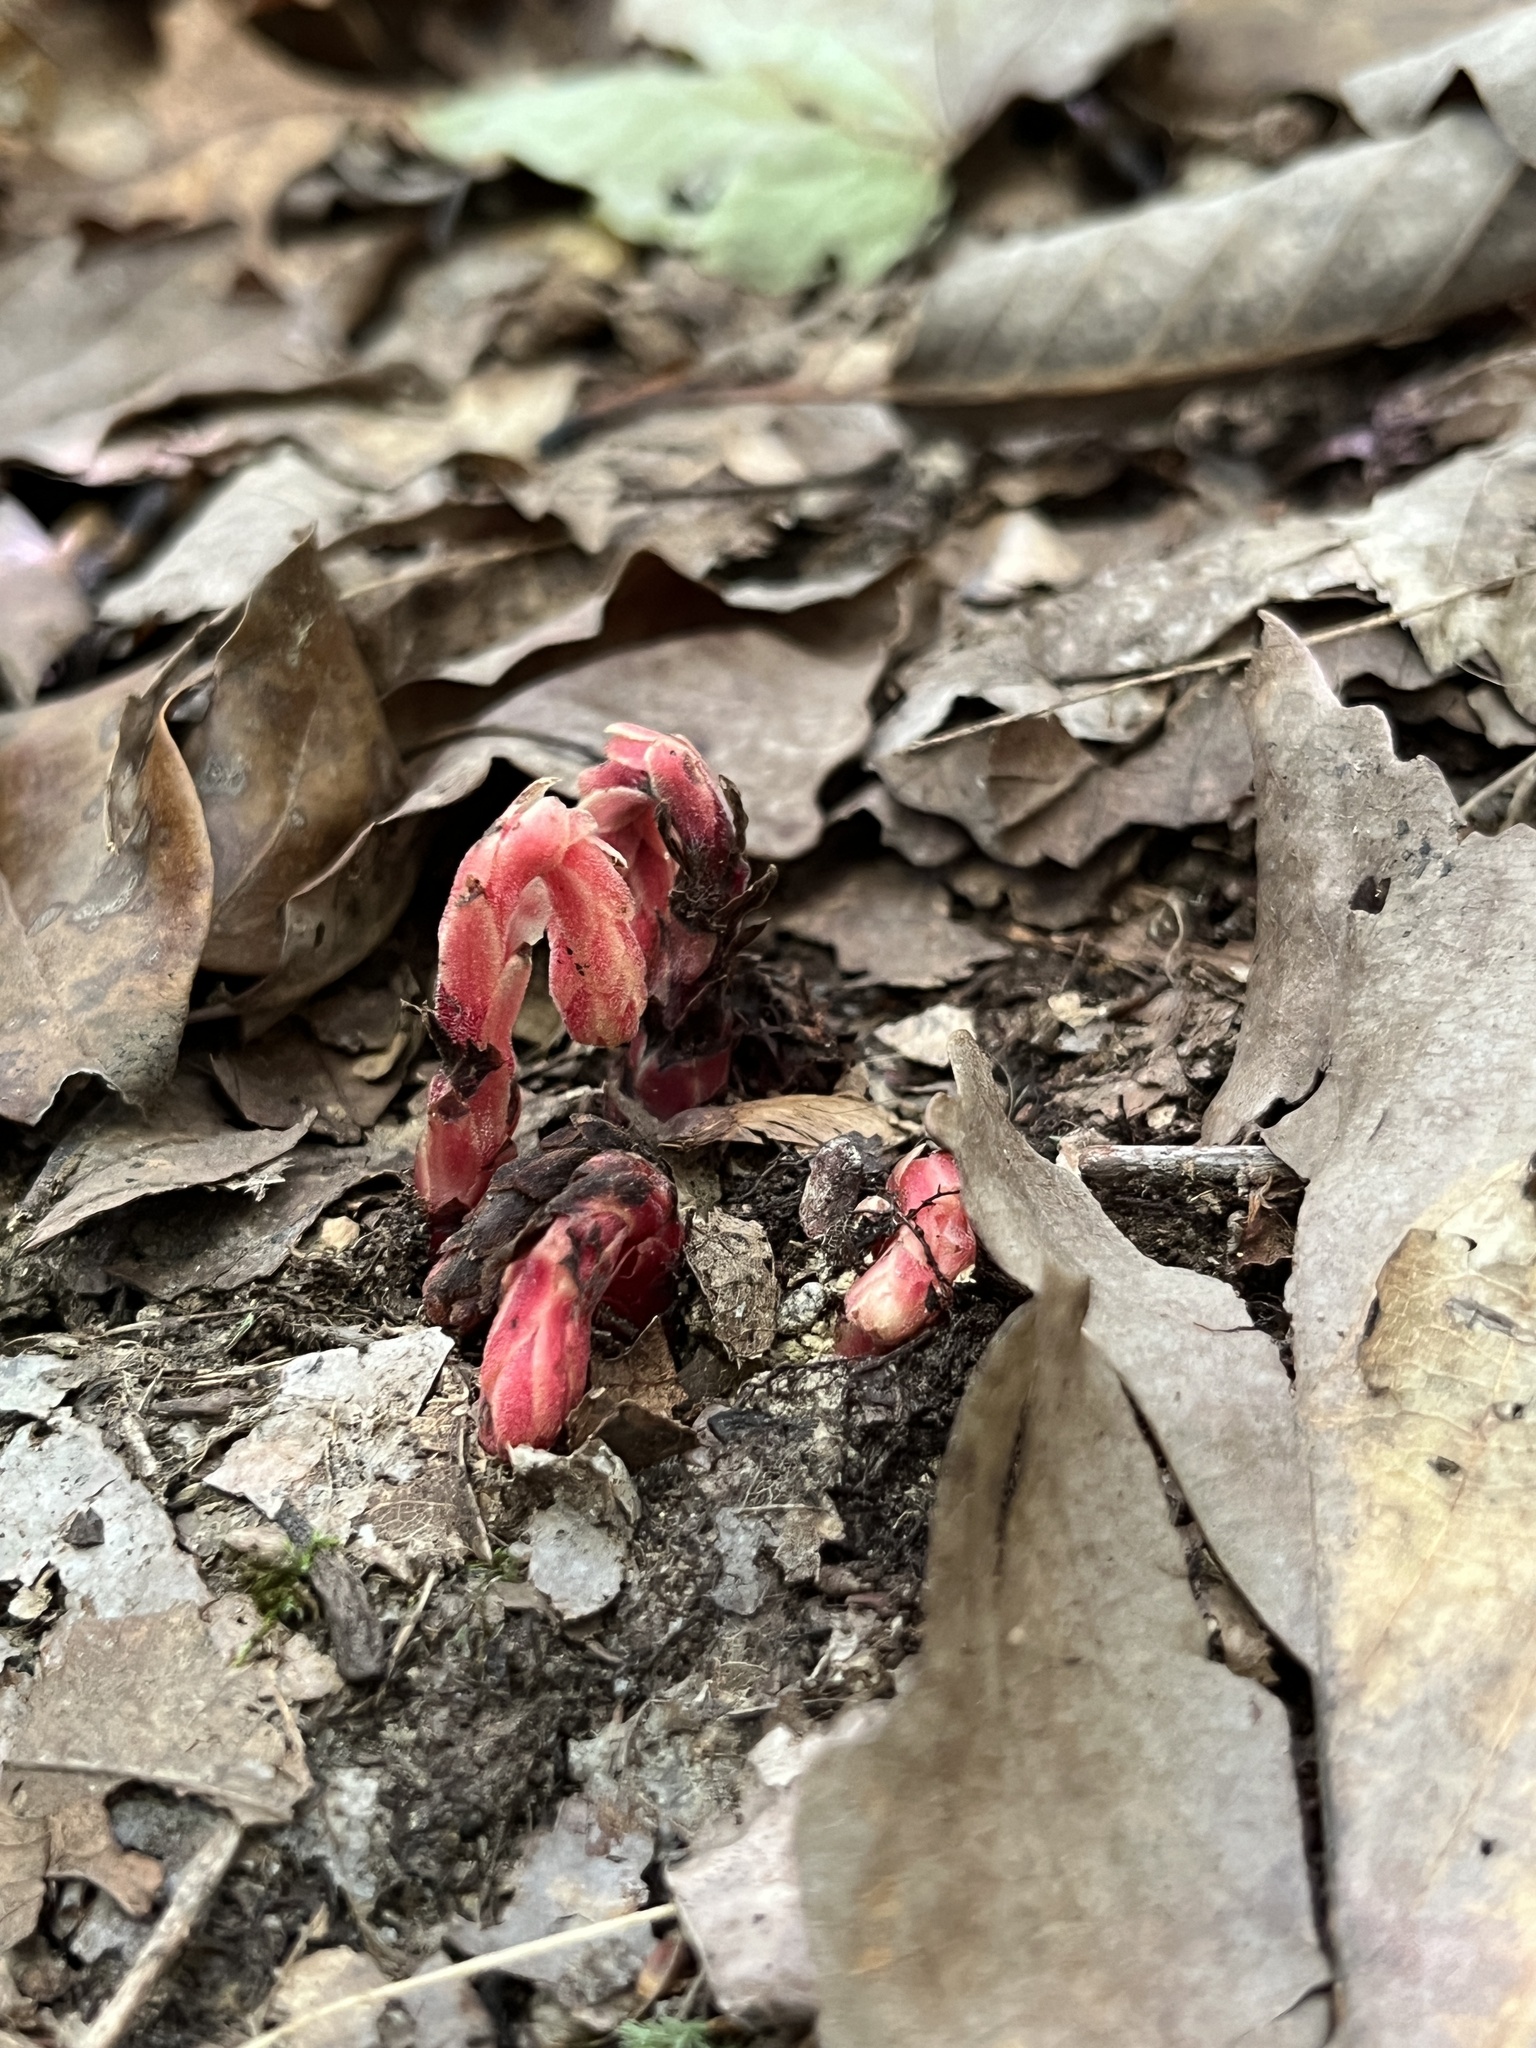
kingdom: Plantae
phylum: Tracheophyta
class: Magnoliopsida
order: Ericales
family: Ericaceae
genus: Hypopitys
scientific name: Hypopitys monotropa
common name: Yellow bird's-nest
